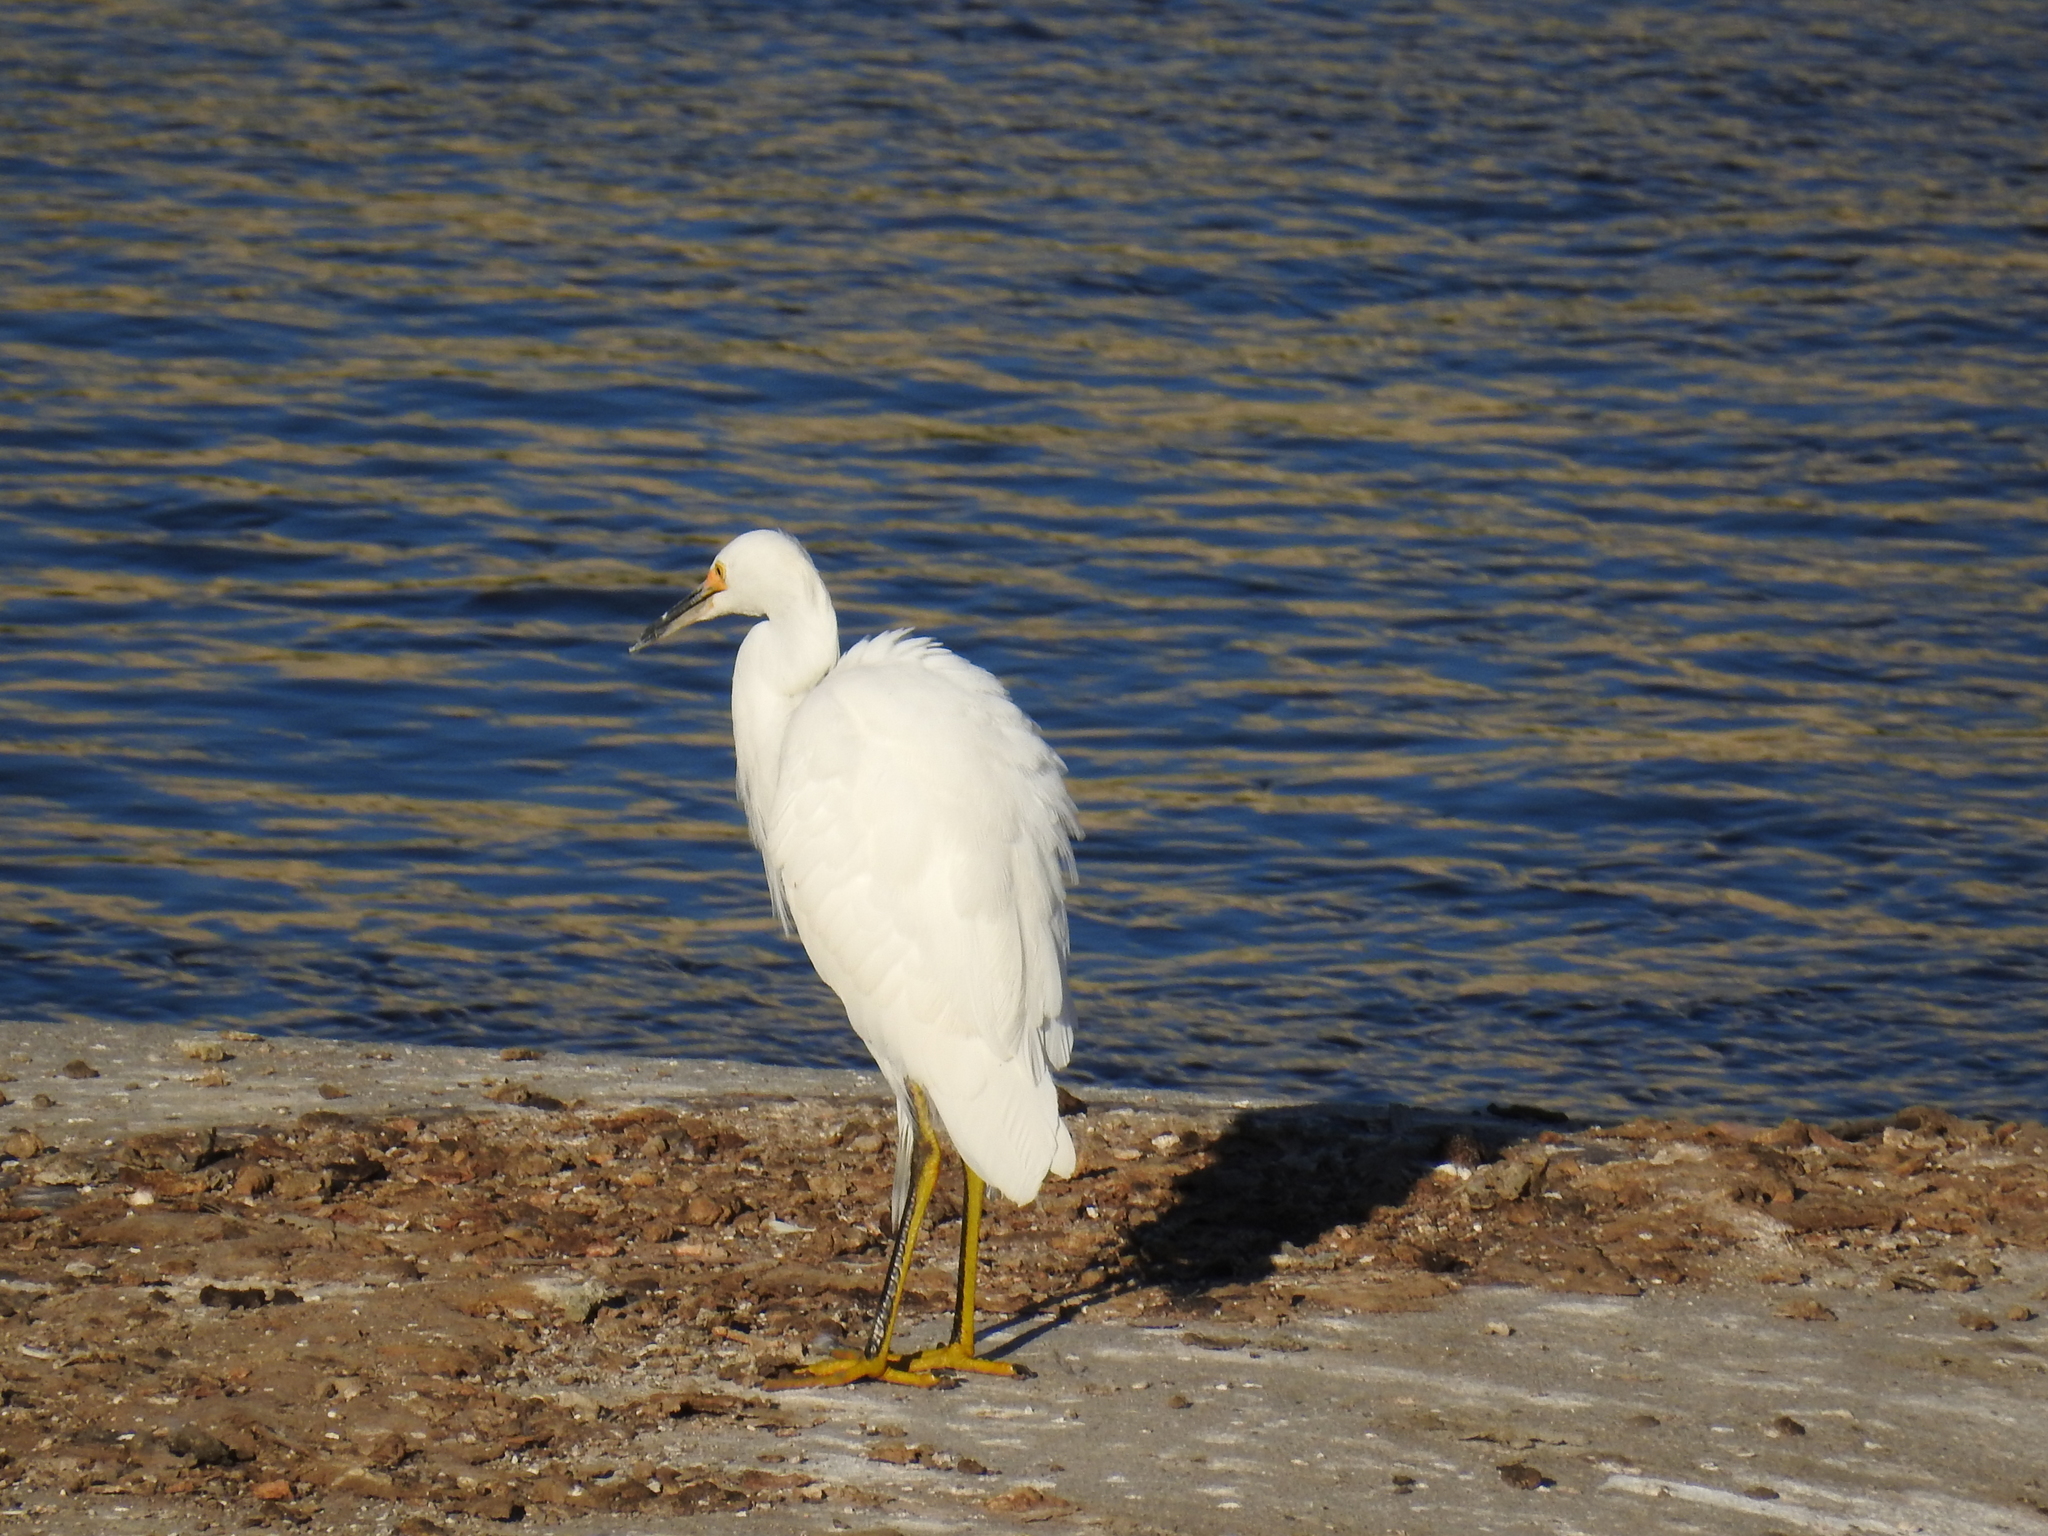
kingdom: Animalia
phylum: Chordata
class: Aves
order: Pelecaniformes
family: Ardeidae
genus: Egretta
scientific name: Egretta thula
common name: Snowy egret
